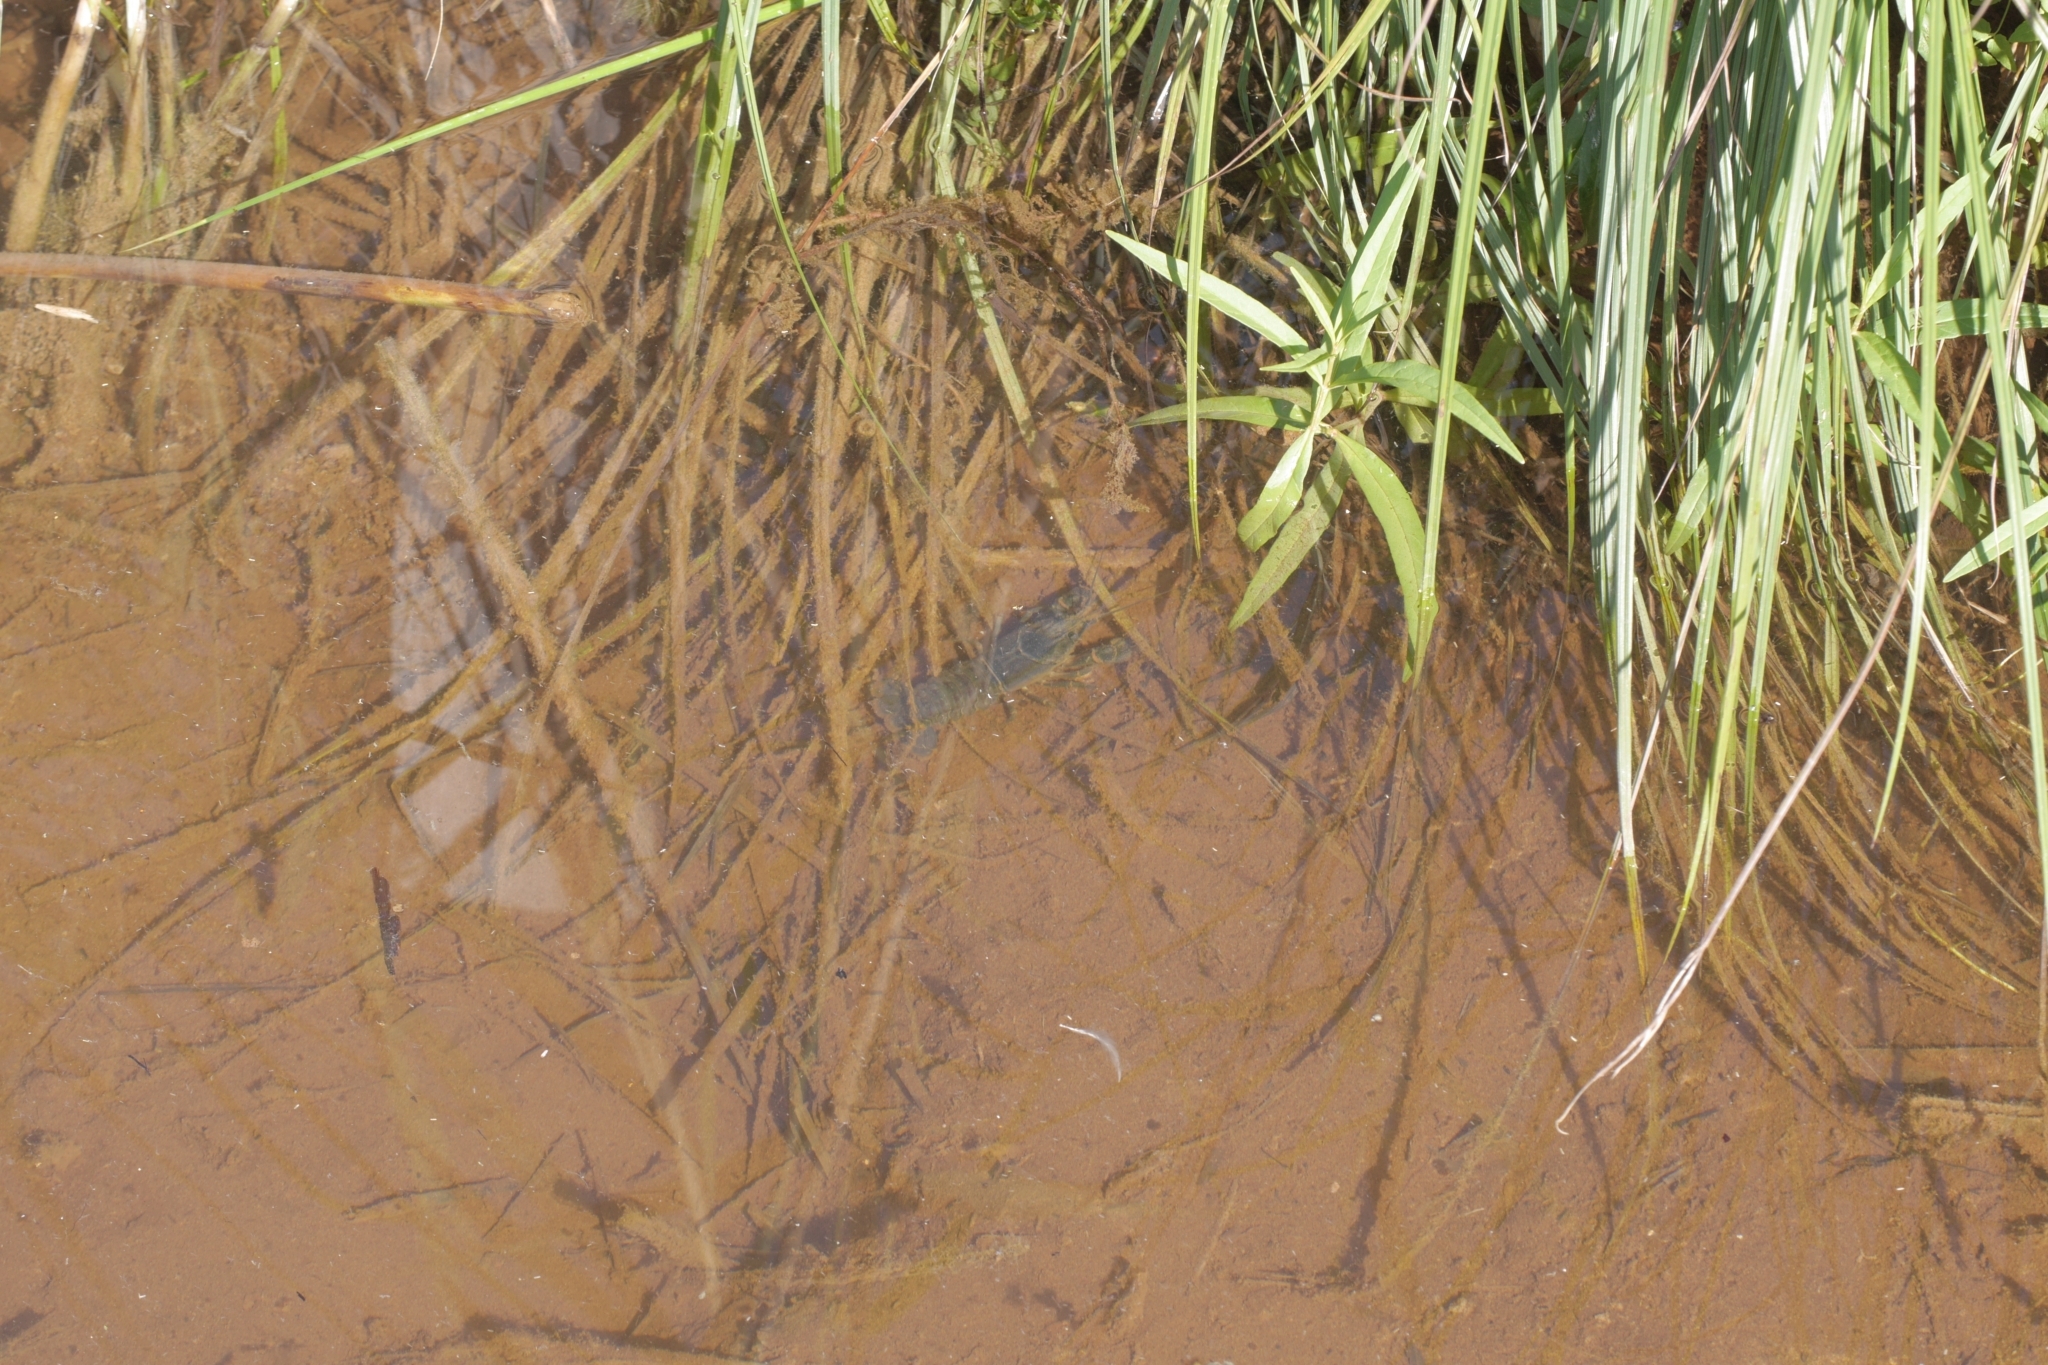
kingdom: Animalia
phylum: Arthropoda
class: Malacostraca
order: Decapoda
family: Cambaridae
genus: Faxonius
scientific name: Faxonius limosus
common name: American crayfish
